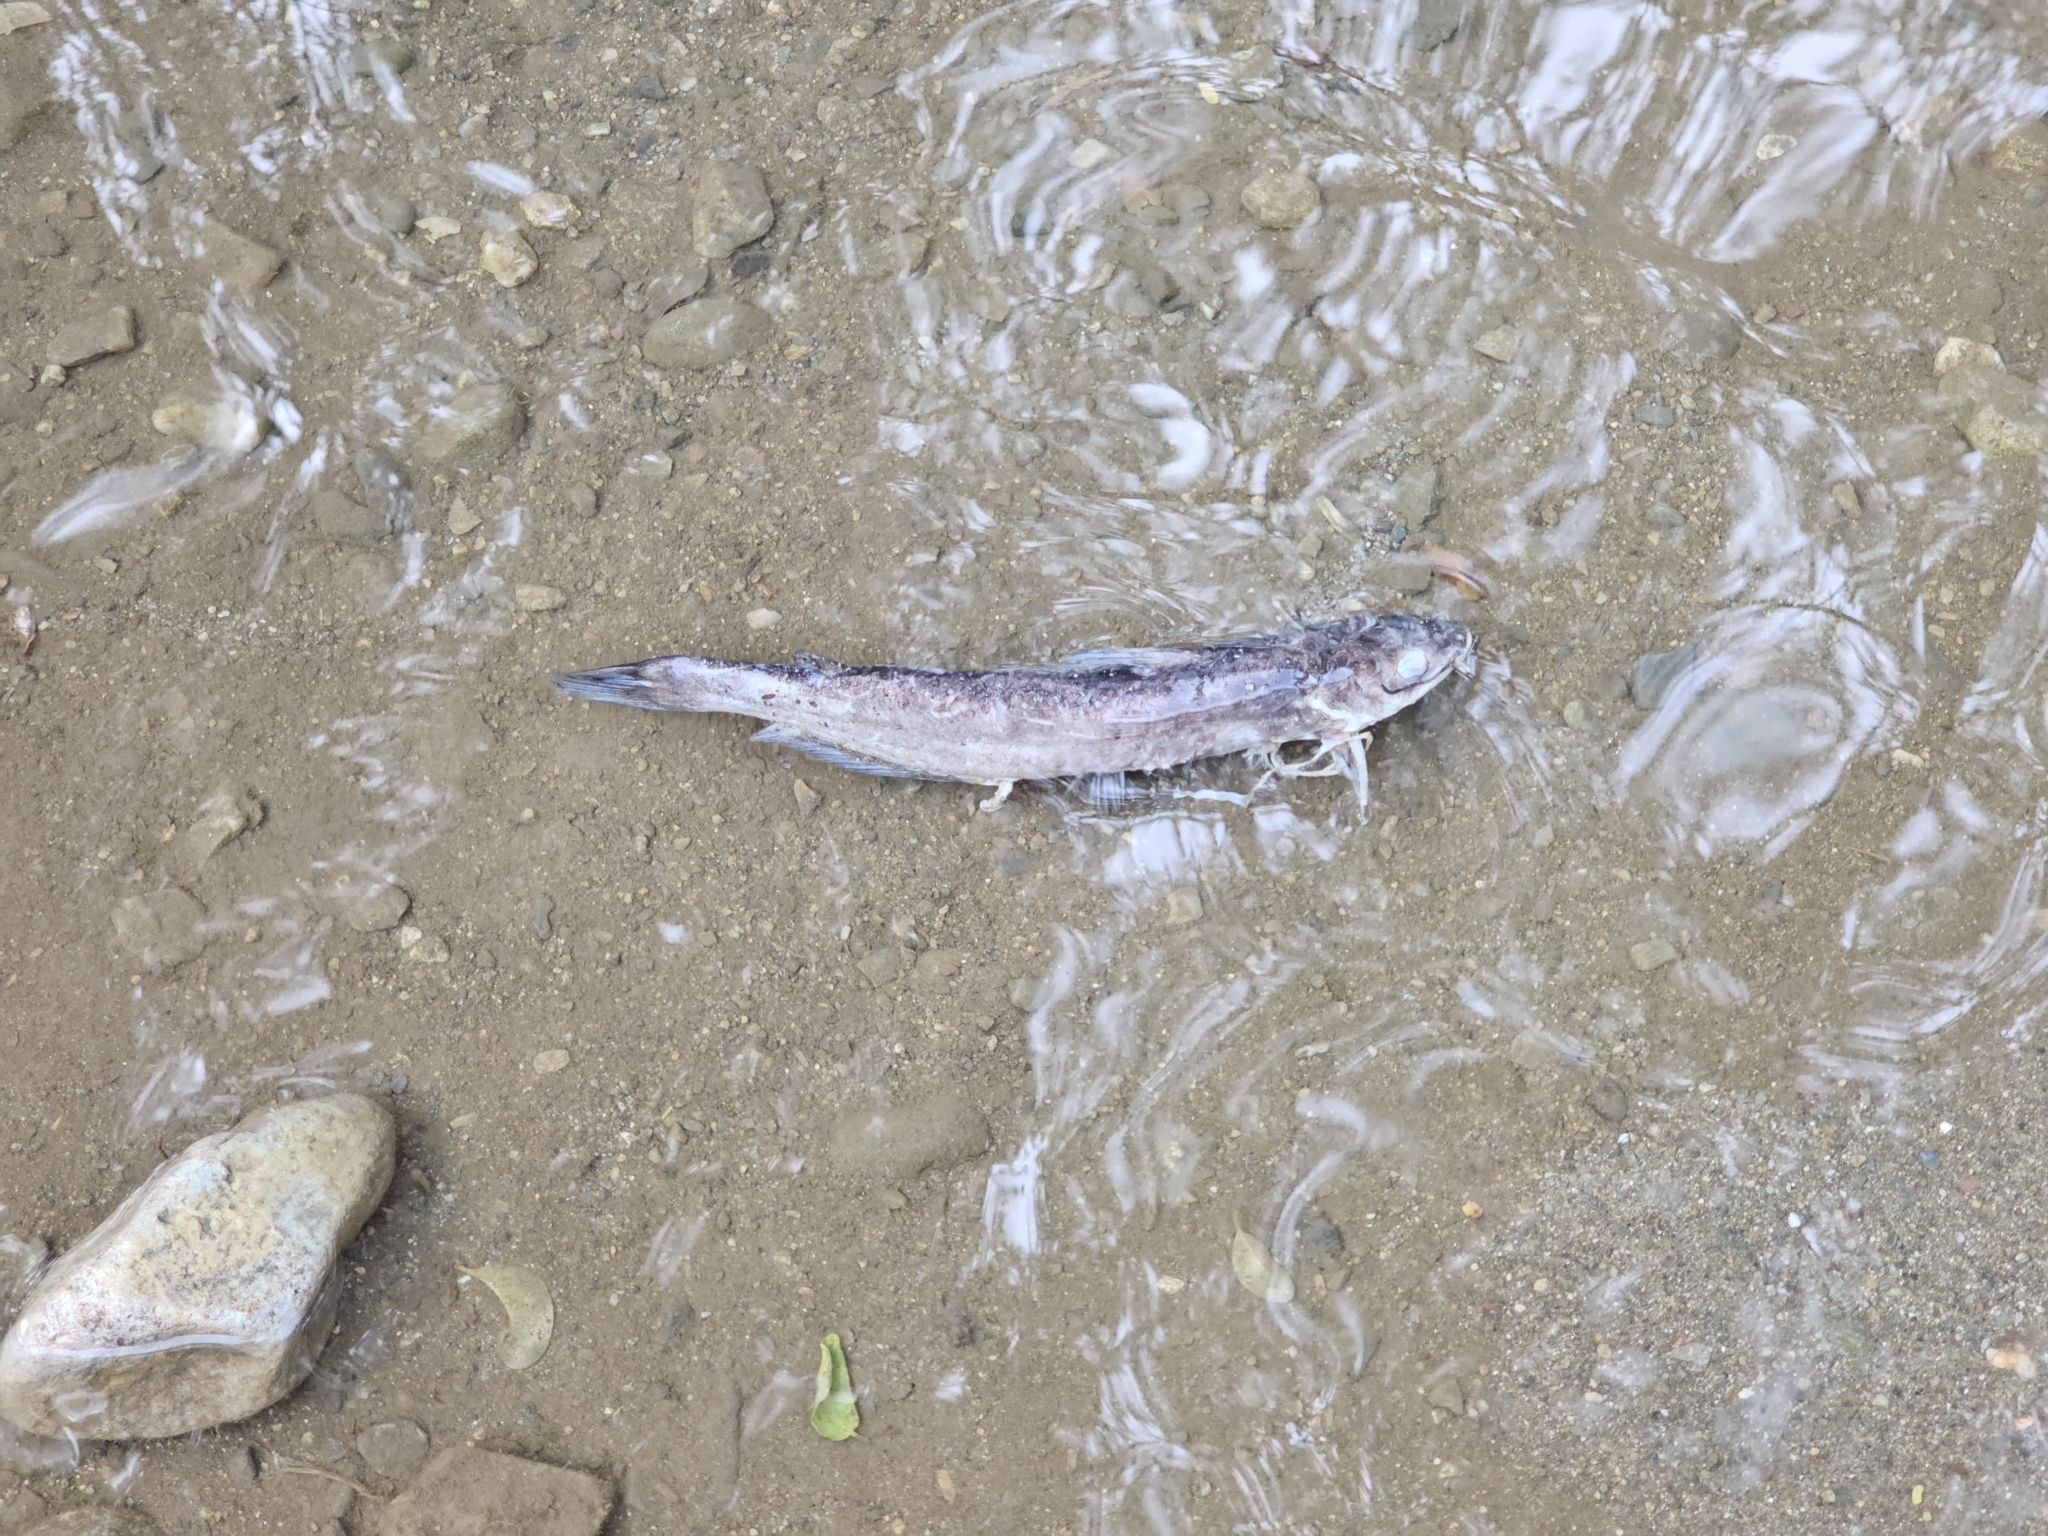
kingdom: Animalia
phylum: Chordata
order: Siluriformes
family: Ictaluridae
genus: Ictalurus
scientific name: Ictalurus punctatus
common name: Channel catfish
